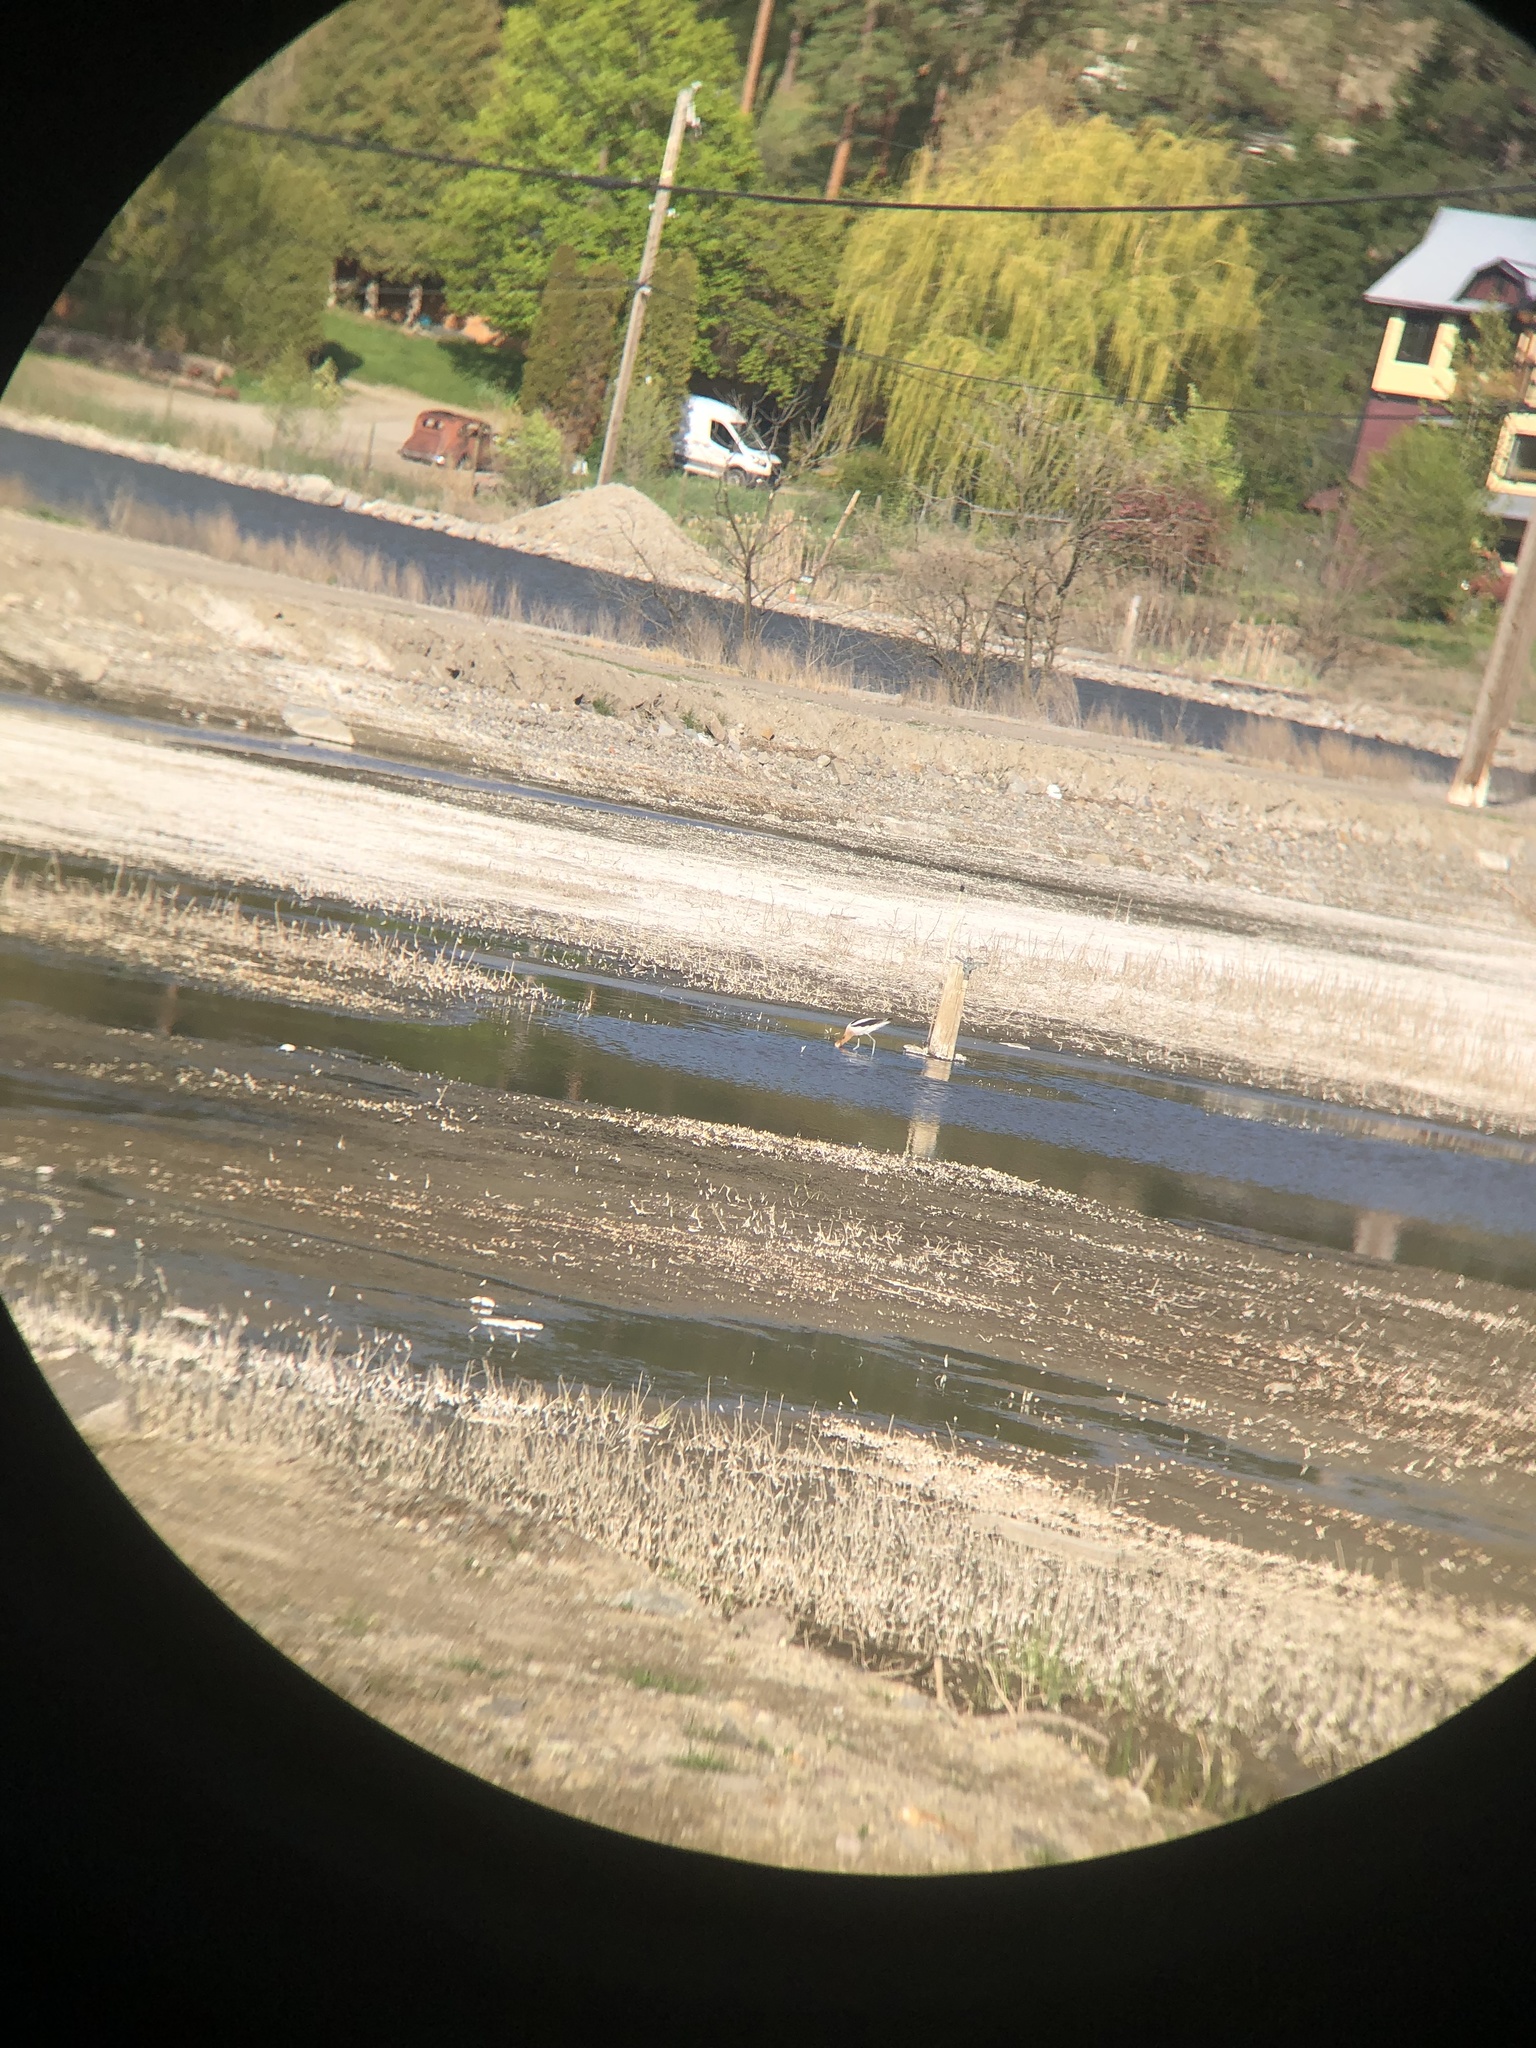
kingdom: Animalia
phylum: Chordata
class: Aves
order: Charadriiformes
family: Recurvirostridae
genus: Recurvirostra
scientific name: Recurvirostra americana
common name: American avocet
